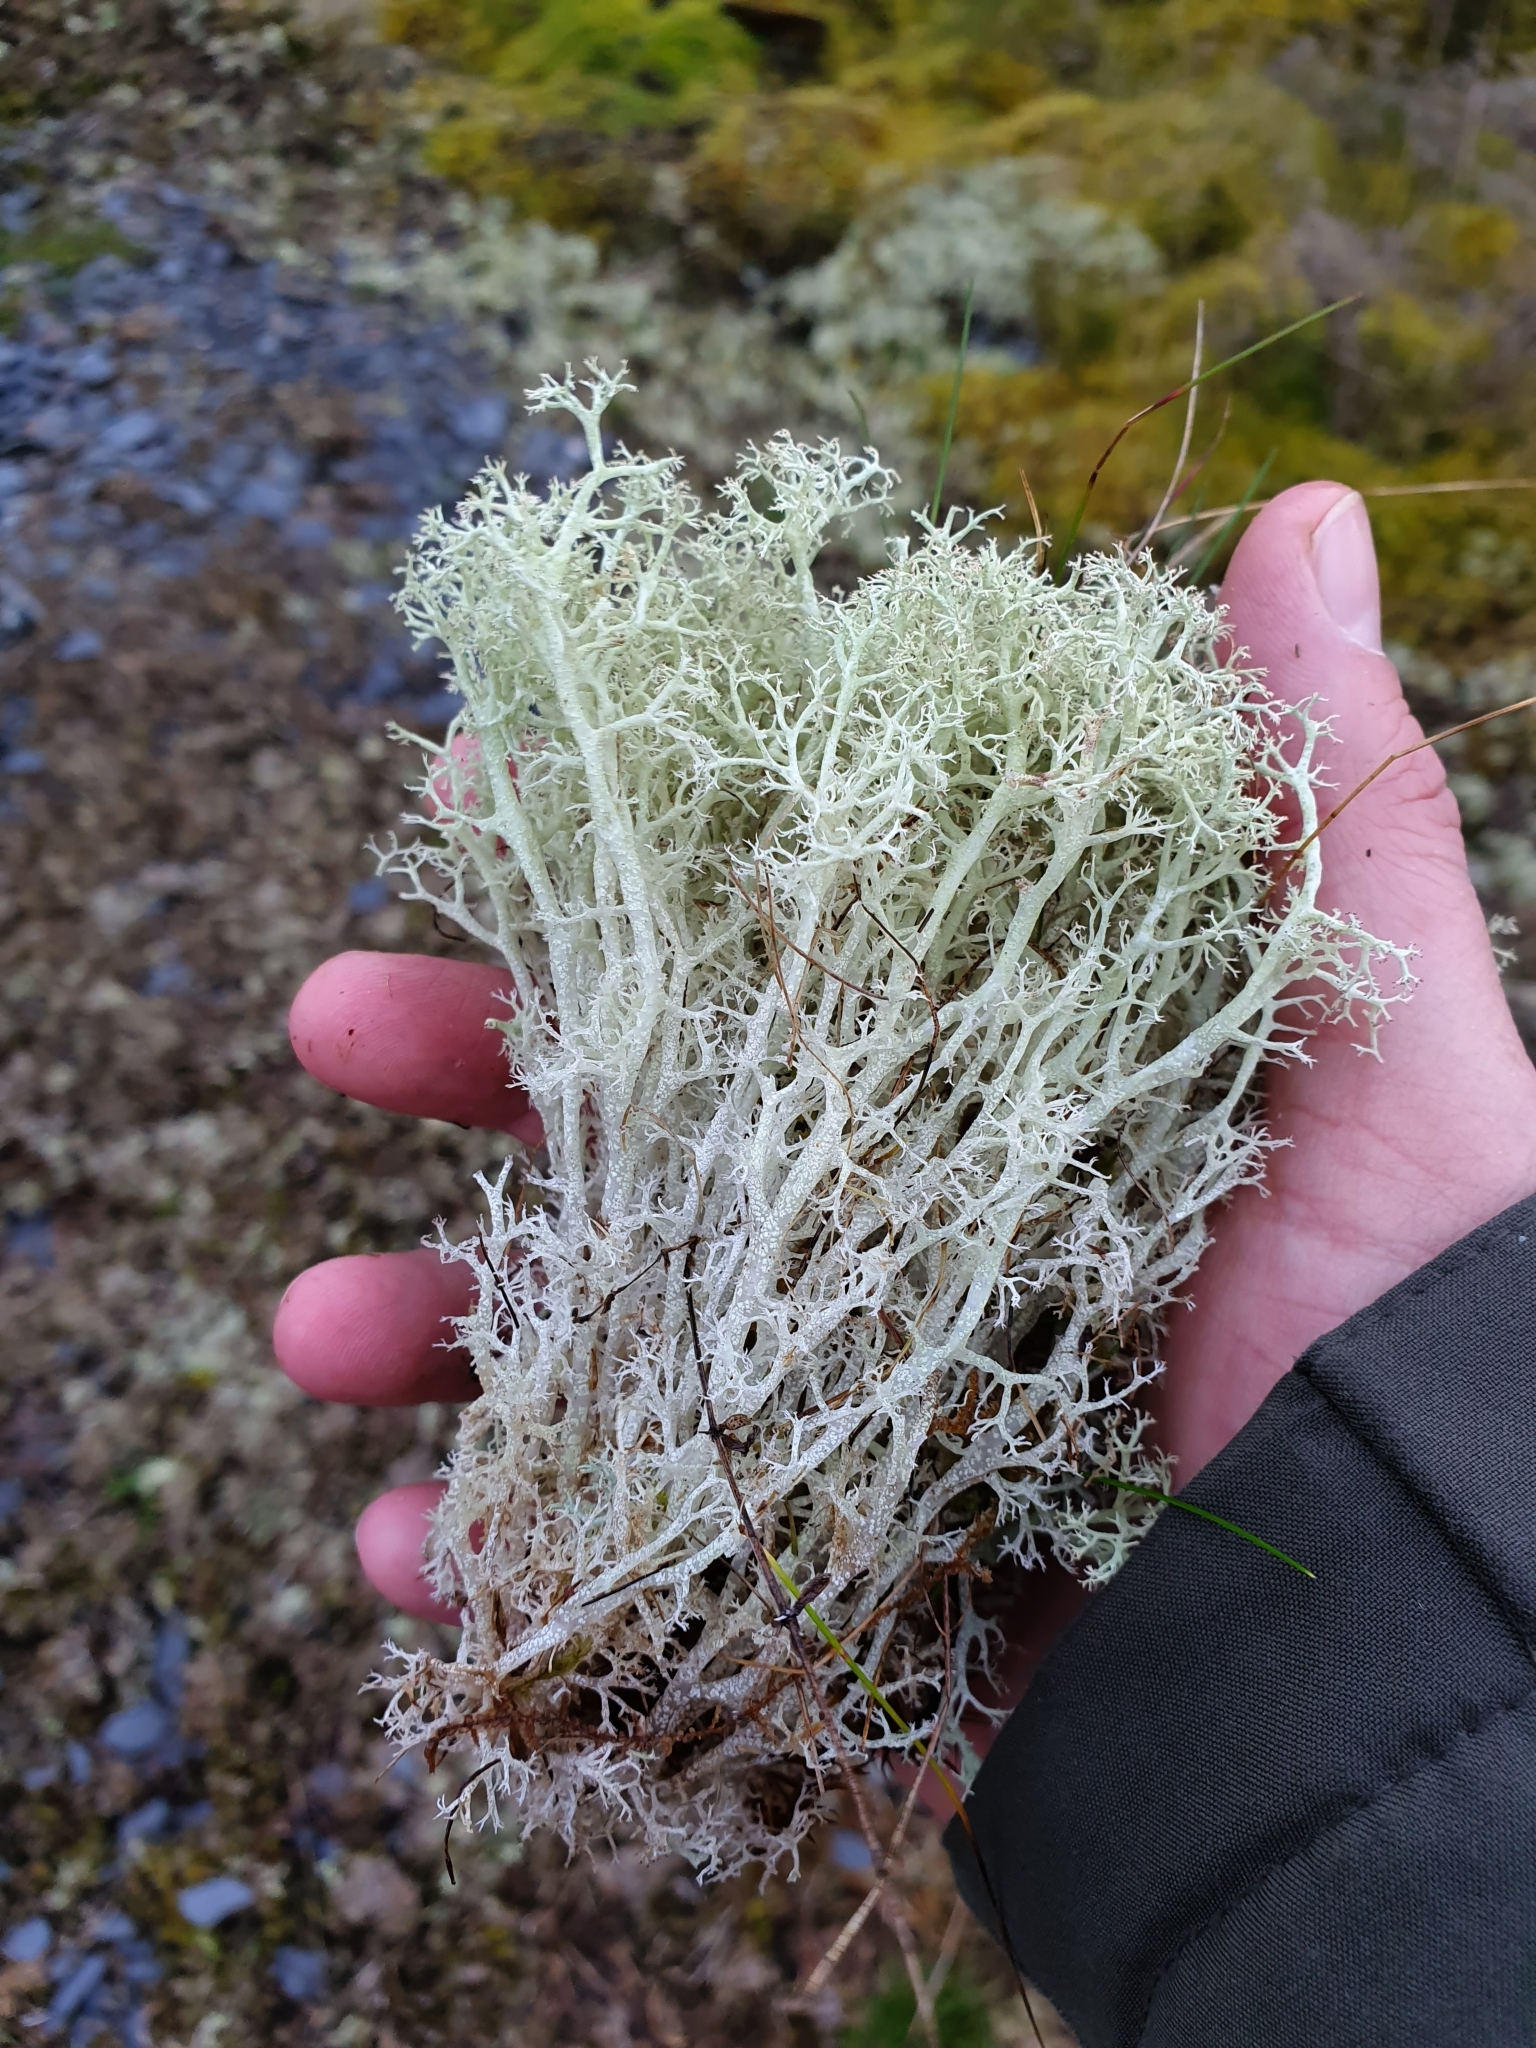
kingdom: Fungi
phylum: Ascomycota
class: Lecanoromycetes
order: Lecanorales
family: Cladoniaceae
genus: Cladonia
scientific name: Cladonia portentosa
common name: Reindeer lichen
